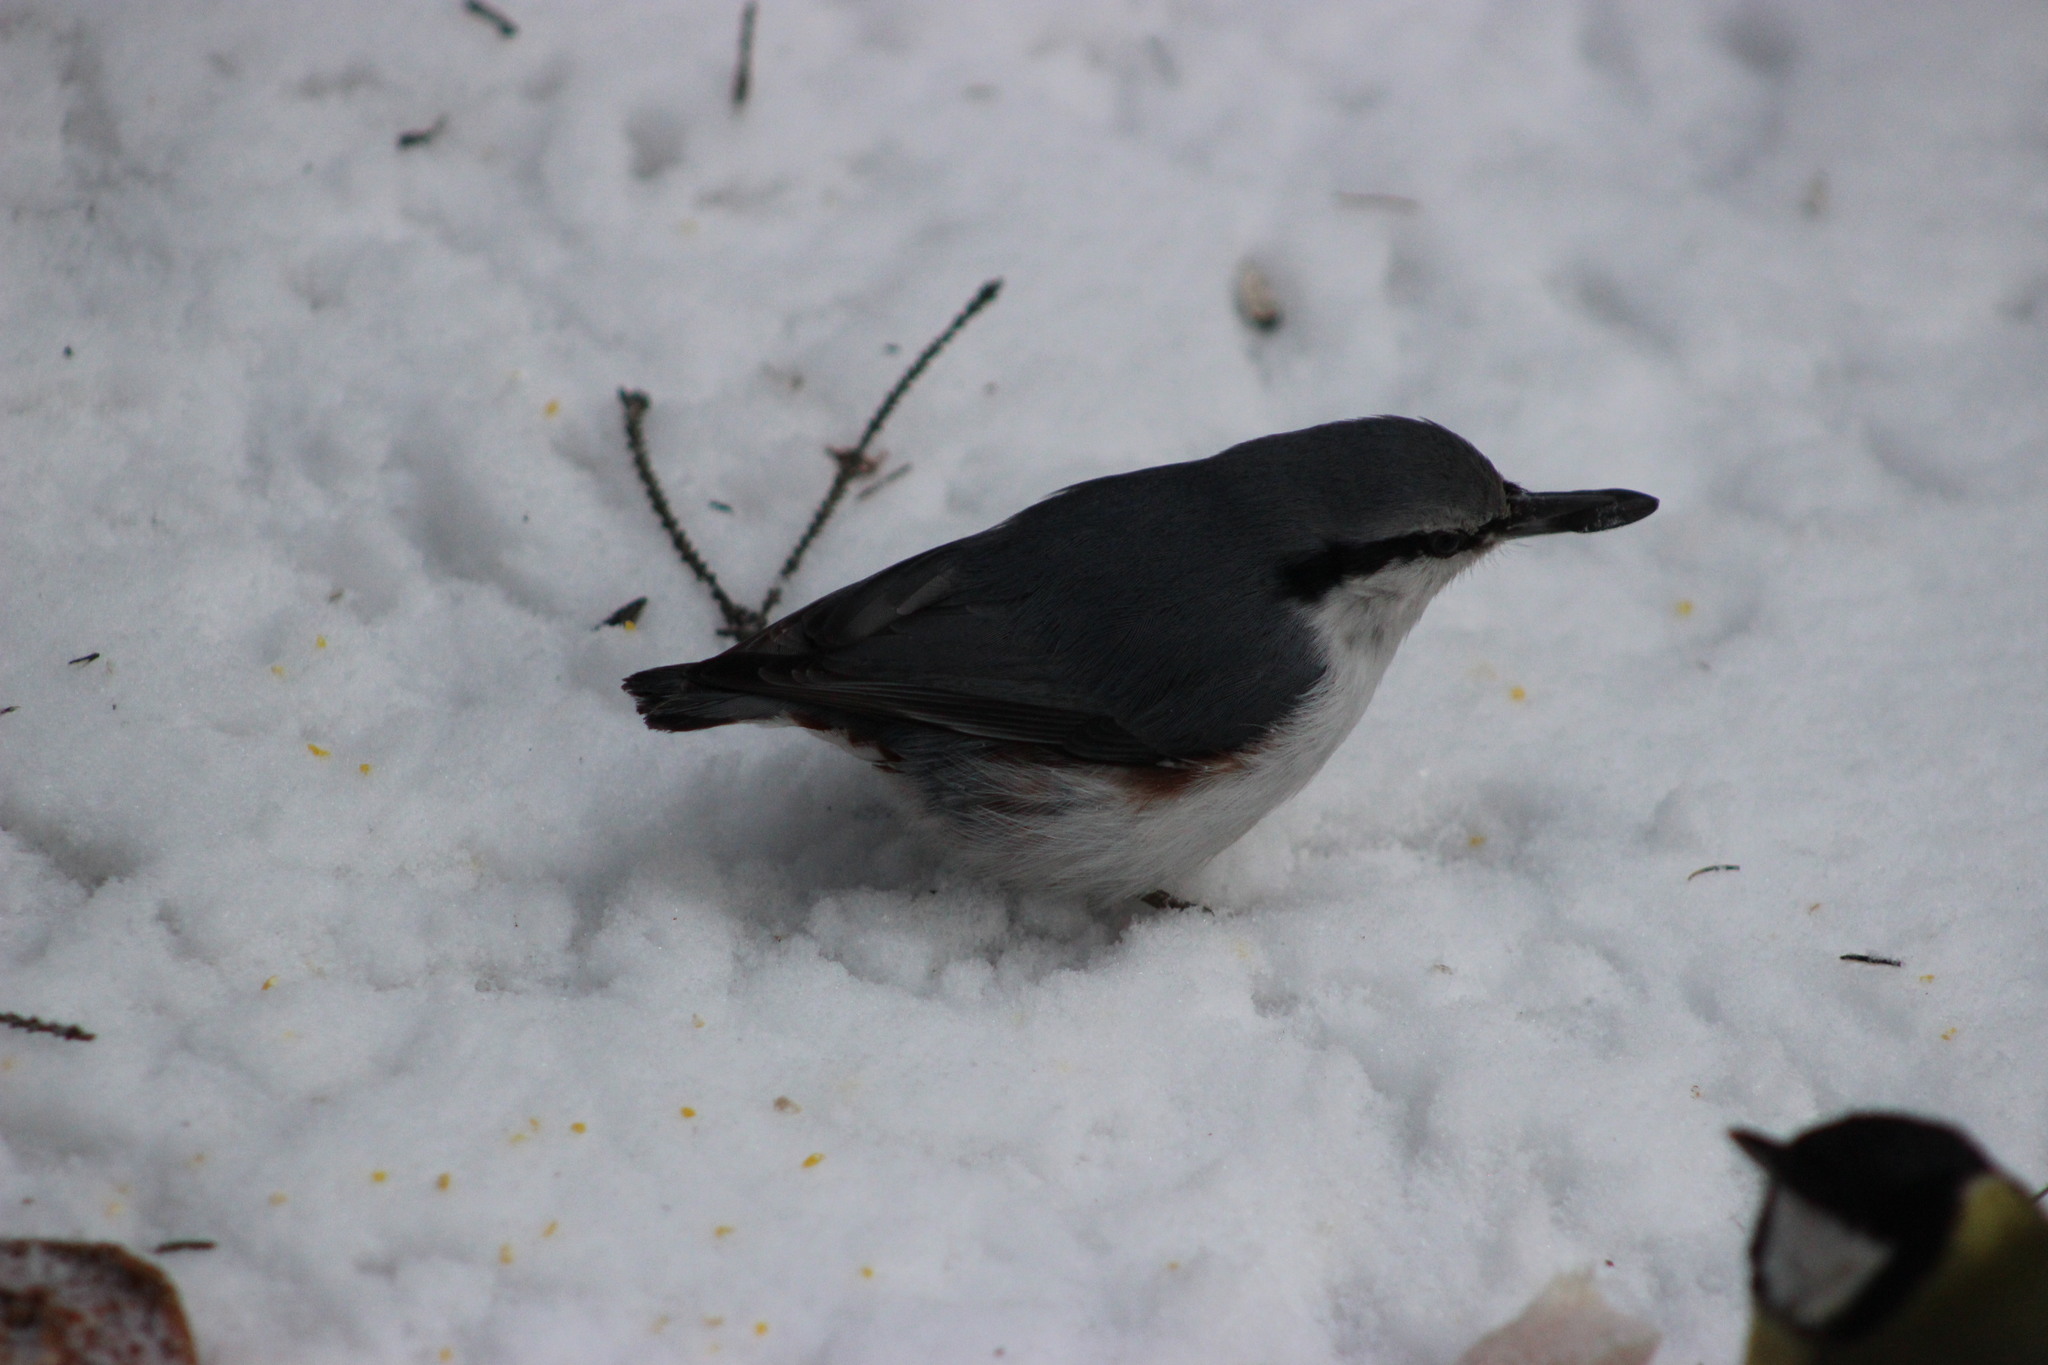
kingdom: Animalia
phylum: Chordata
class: Aves
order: Passeriformes
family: Sittidae
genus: Sitta
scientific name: Sitta europaea
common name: Eurasian nuthatch
